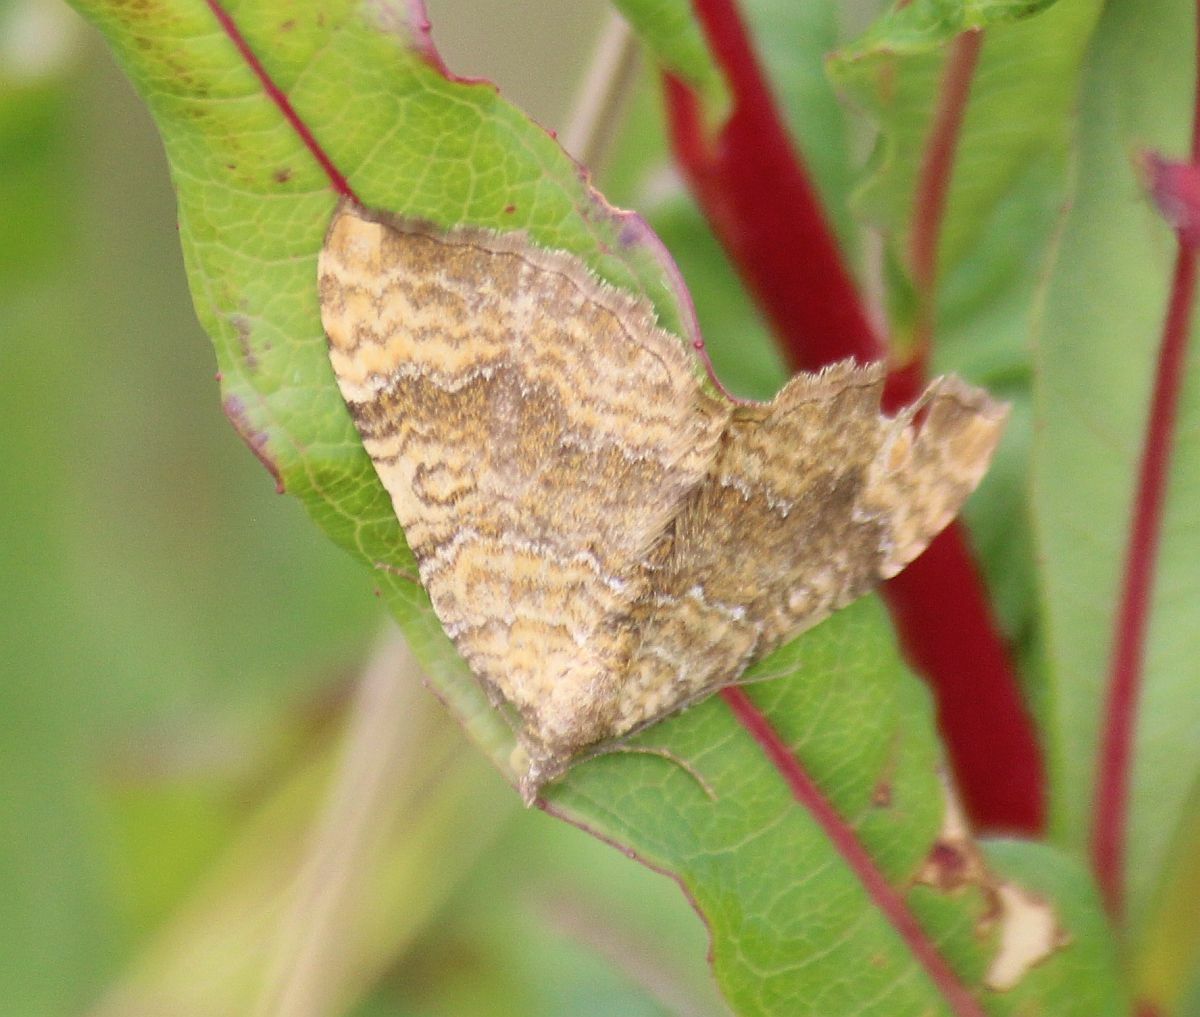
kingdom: Animalia
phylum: Arthropoda
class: Insecta
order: Lepidoptera
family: Geometridae
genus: Camptogramma
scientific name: Camptogramma bilineata
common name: Yellow shell
